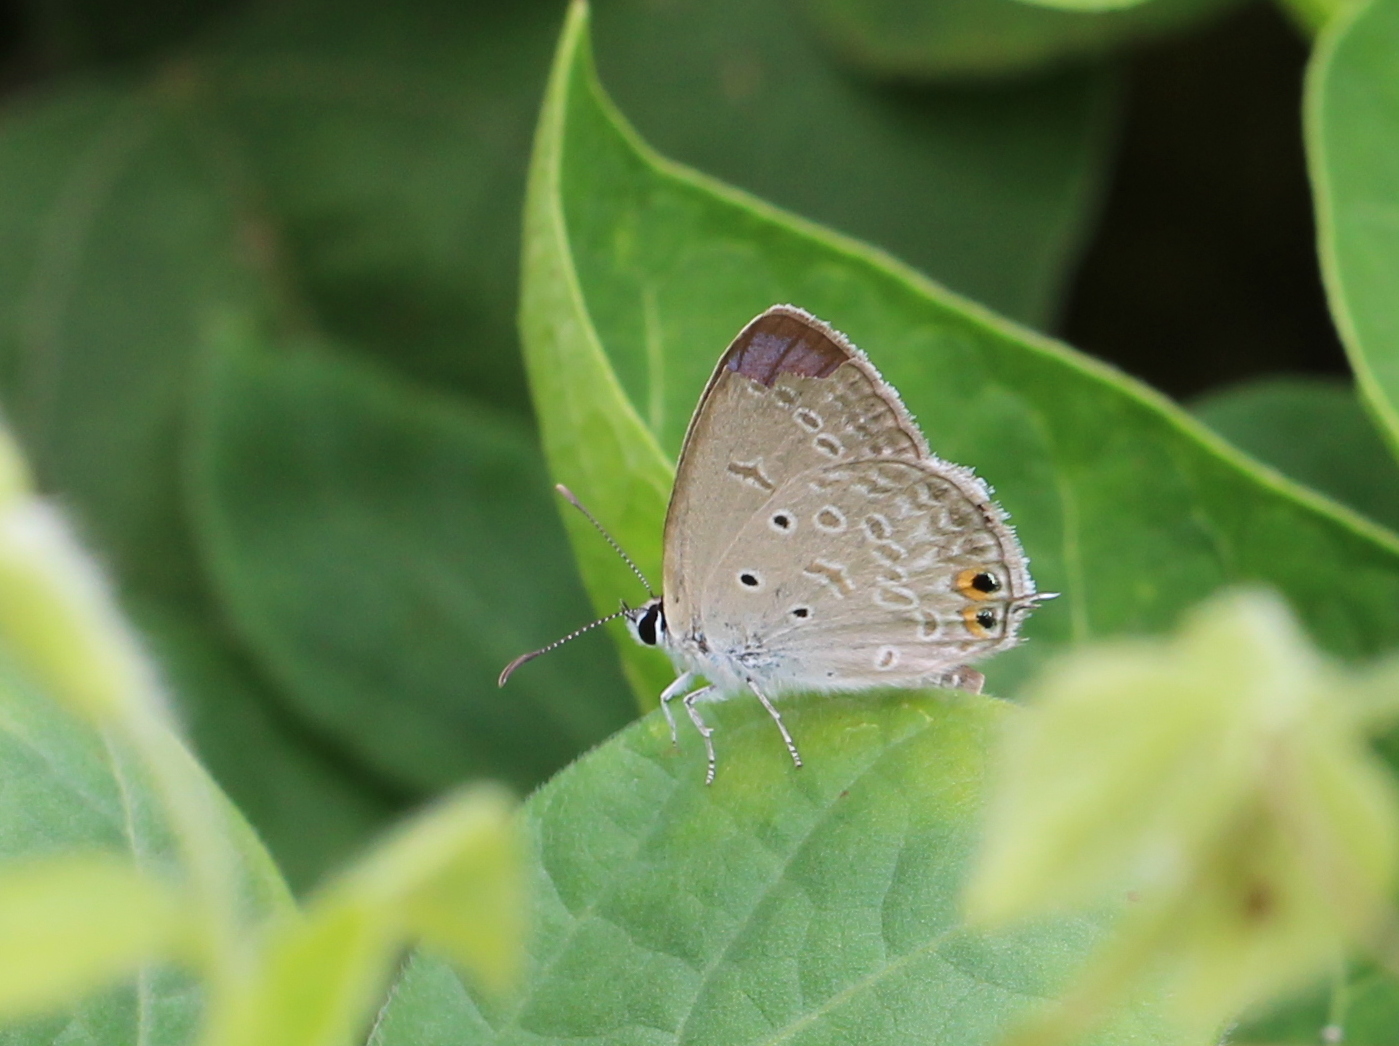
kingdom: Animalia
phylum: Arthropoda
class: Insecta
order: Lepidoptera
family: Lycaenidae
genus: Euchrysops
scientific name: Euchrysops cnejus
